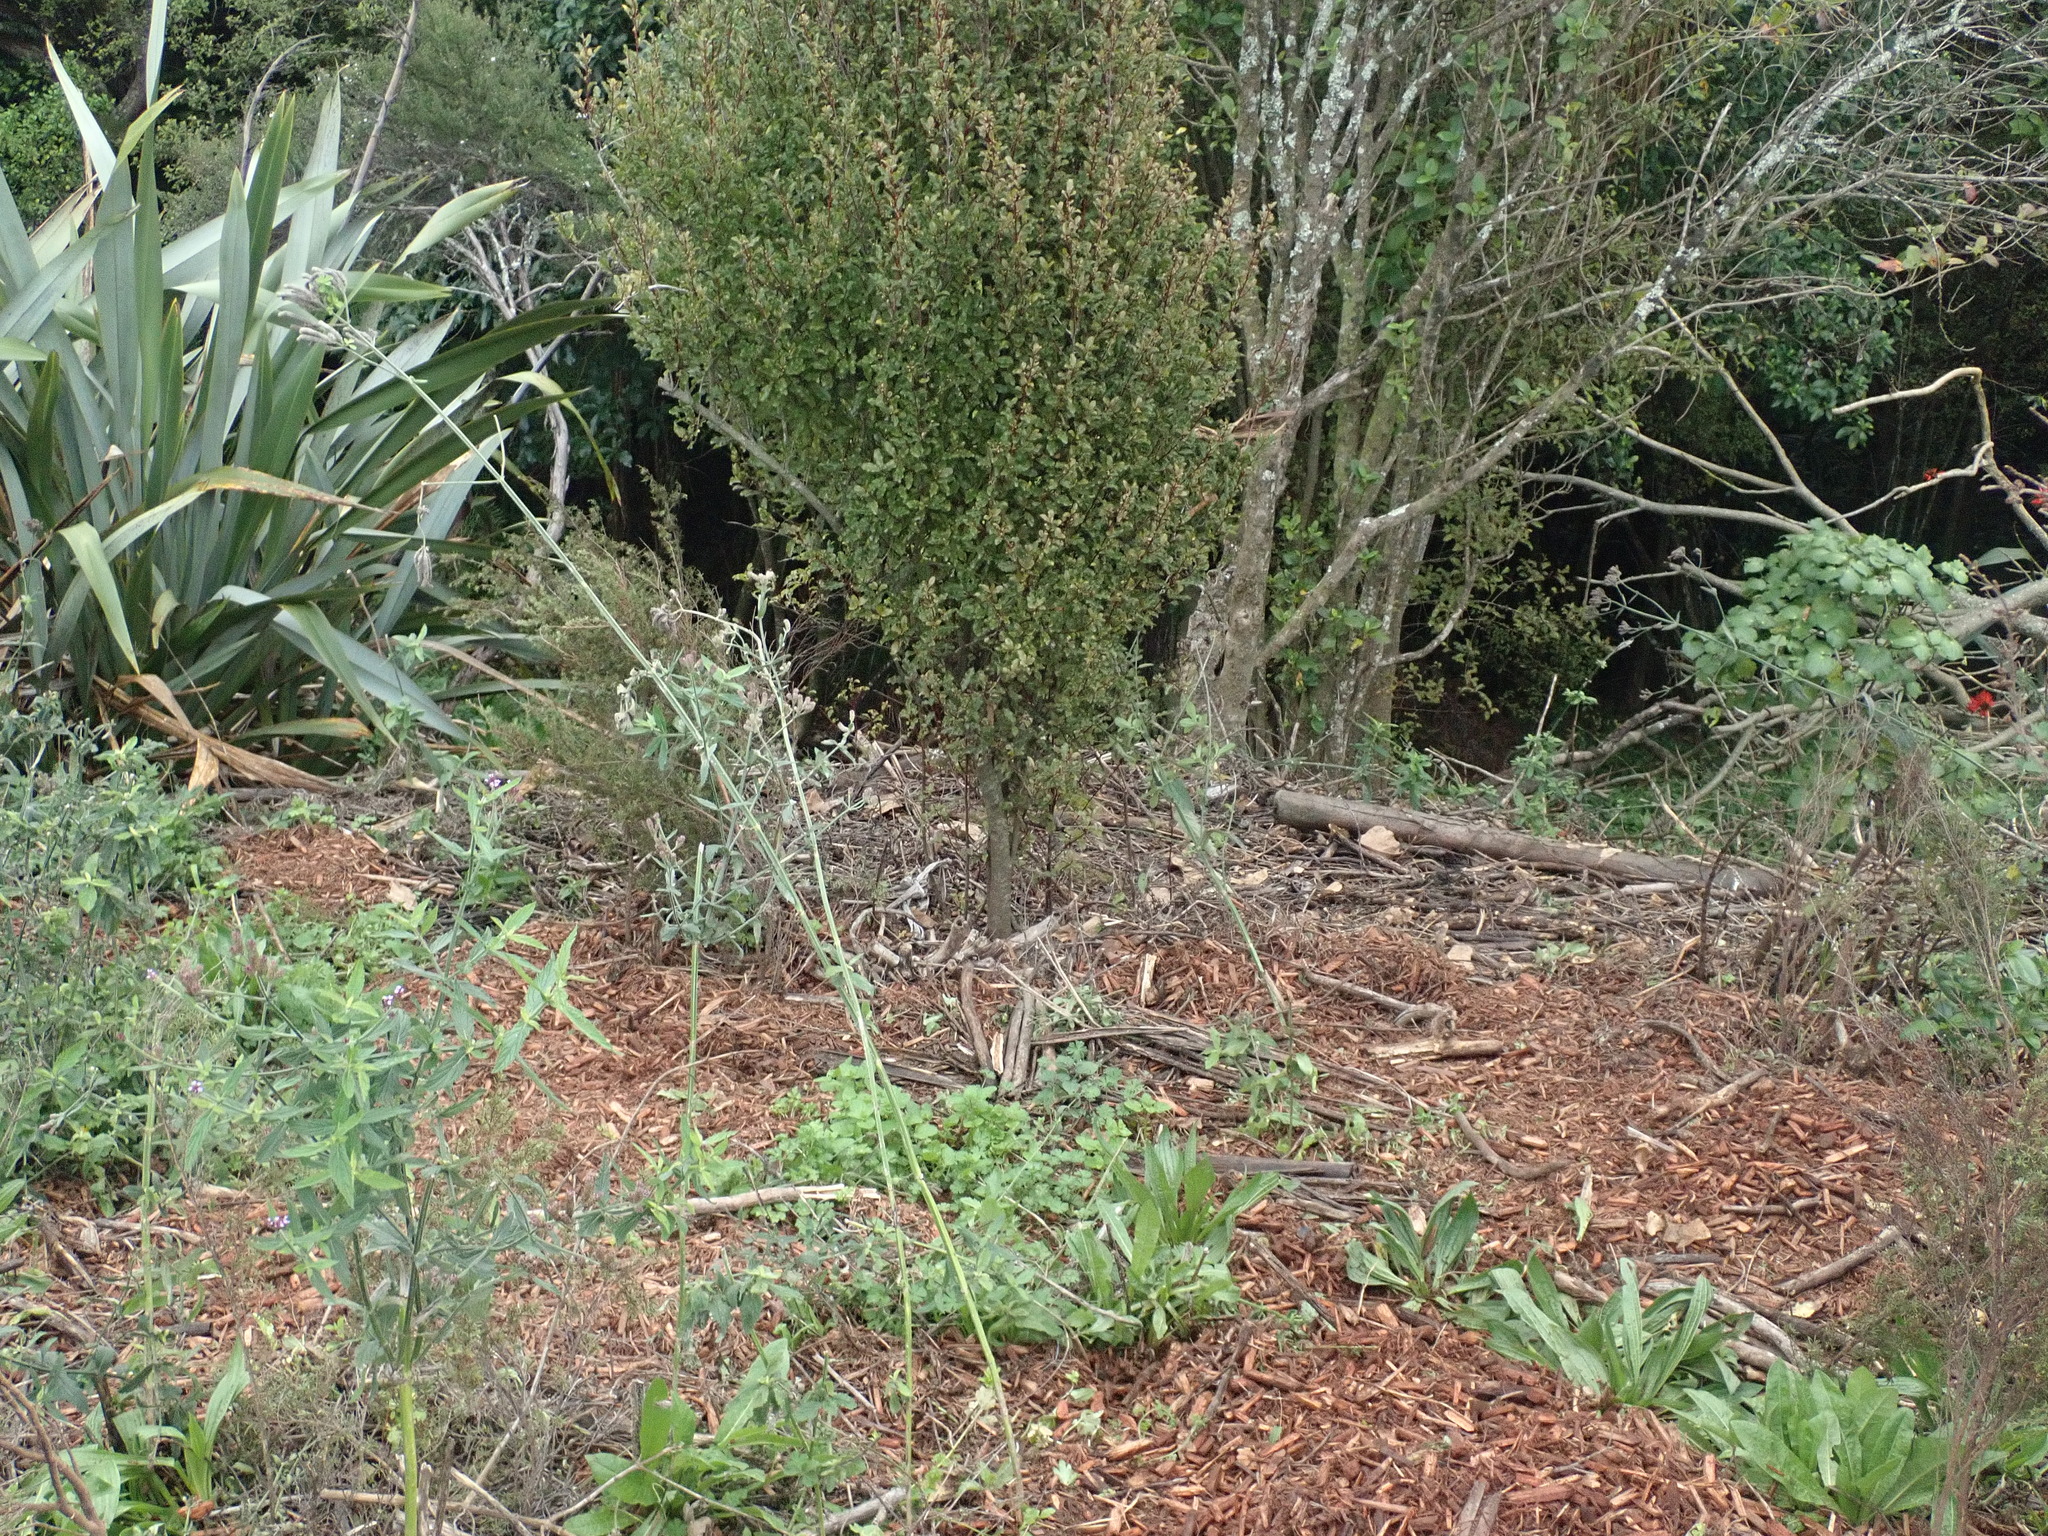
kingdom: Plantae
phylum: Tracheophyta
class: Magnoliopsida
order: Lamiales
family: Verbenaceae
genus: Verbena
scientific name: Verbena incompta
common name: Purpletop vervain
